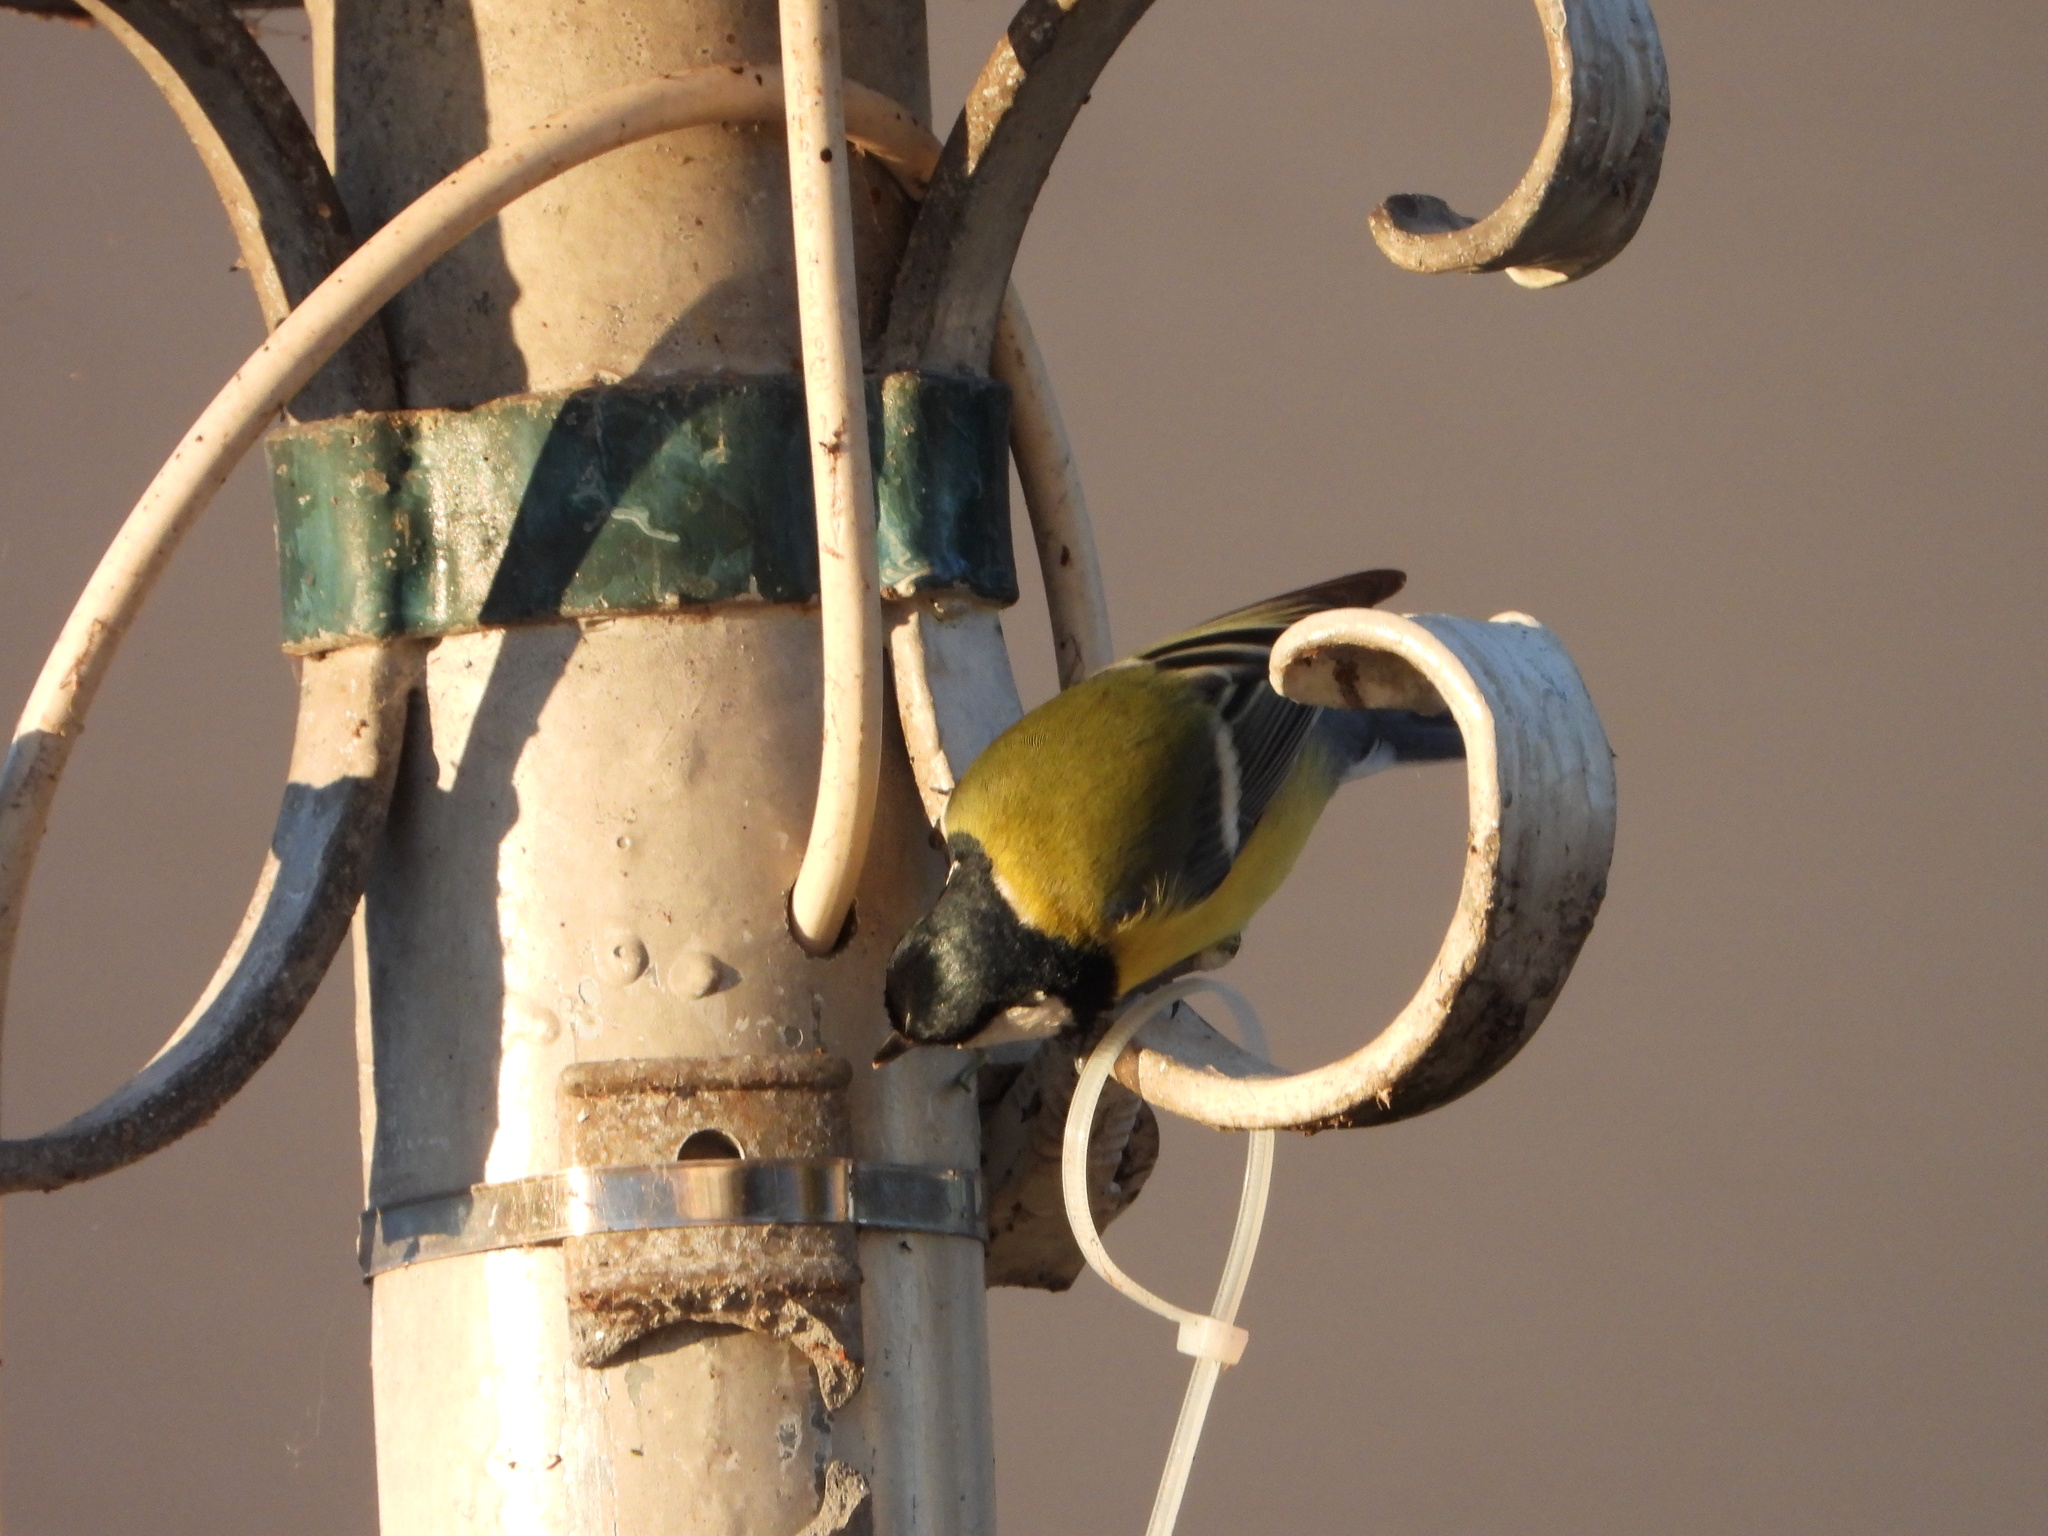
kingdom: Animalia
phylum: Chordata
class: Aves
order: Passeriformes
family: Paridae
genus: Parus
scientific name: Parus major
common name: Great tit
